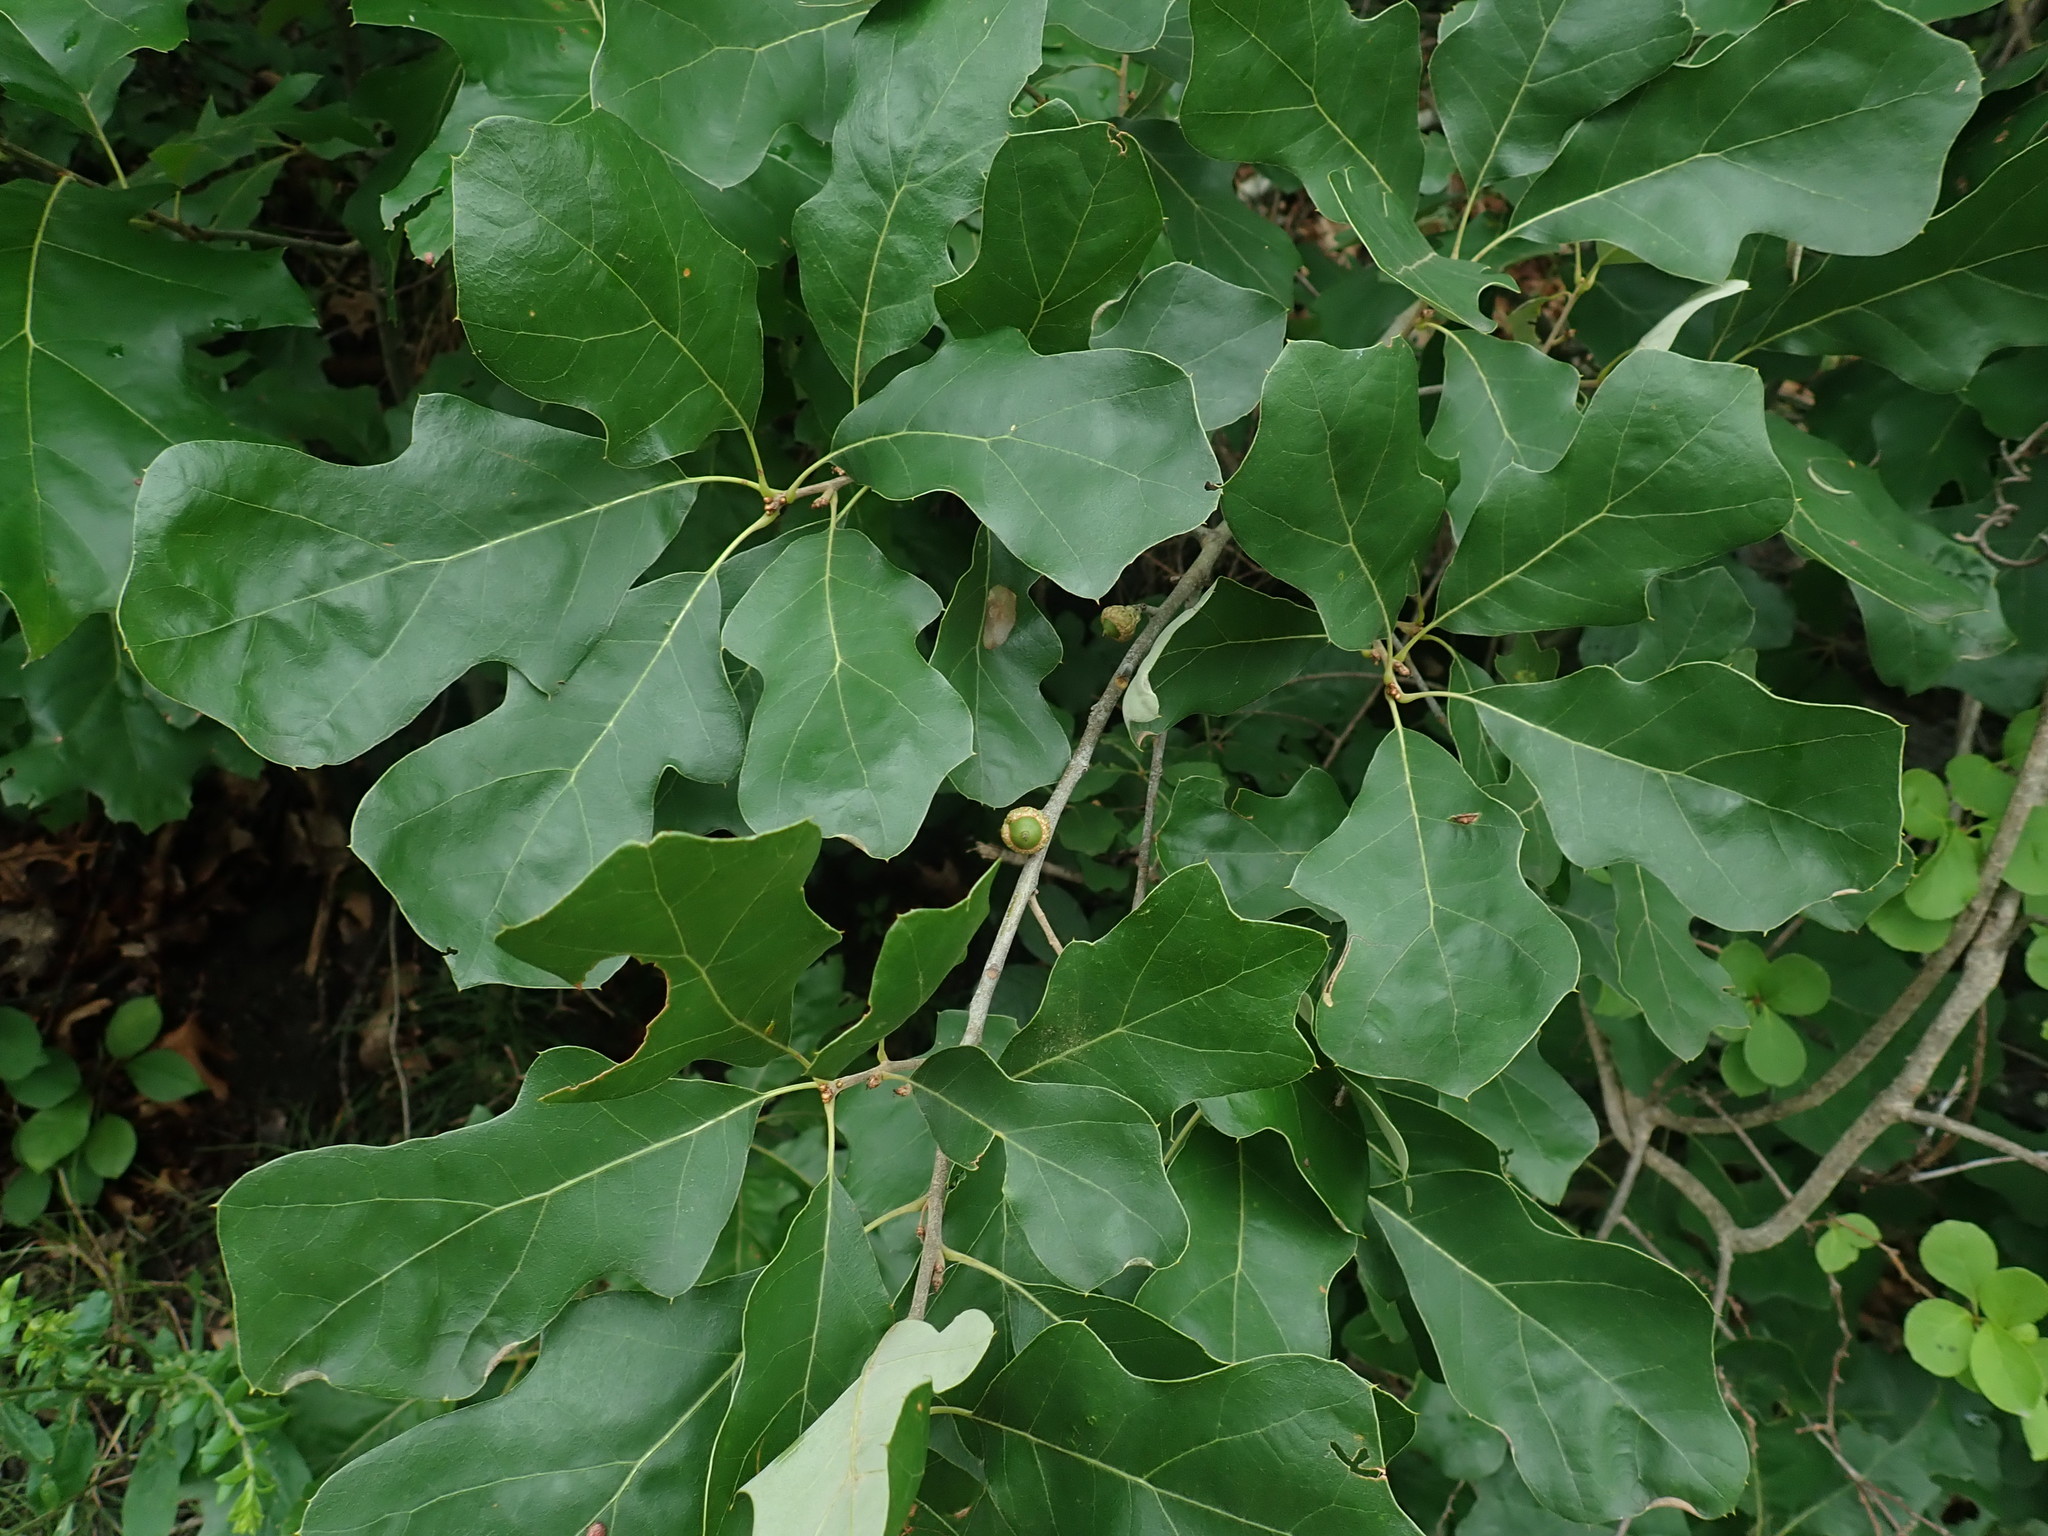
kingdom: Plantae
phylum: Tracheophyta
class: Magnoliopsida
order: Fagales
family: Fagaceae
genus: Quercus
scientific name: Quercus ilicifolia
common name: Bear oak
